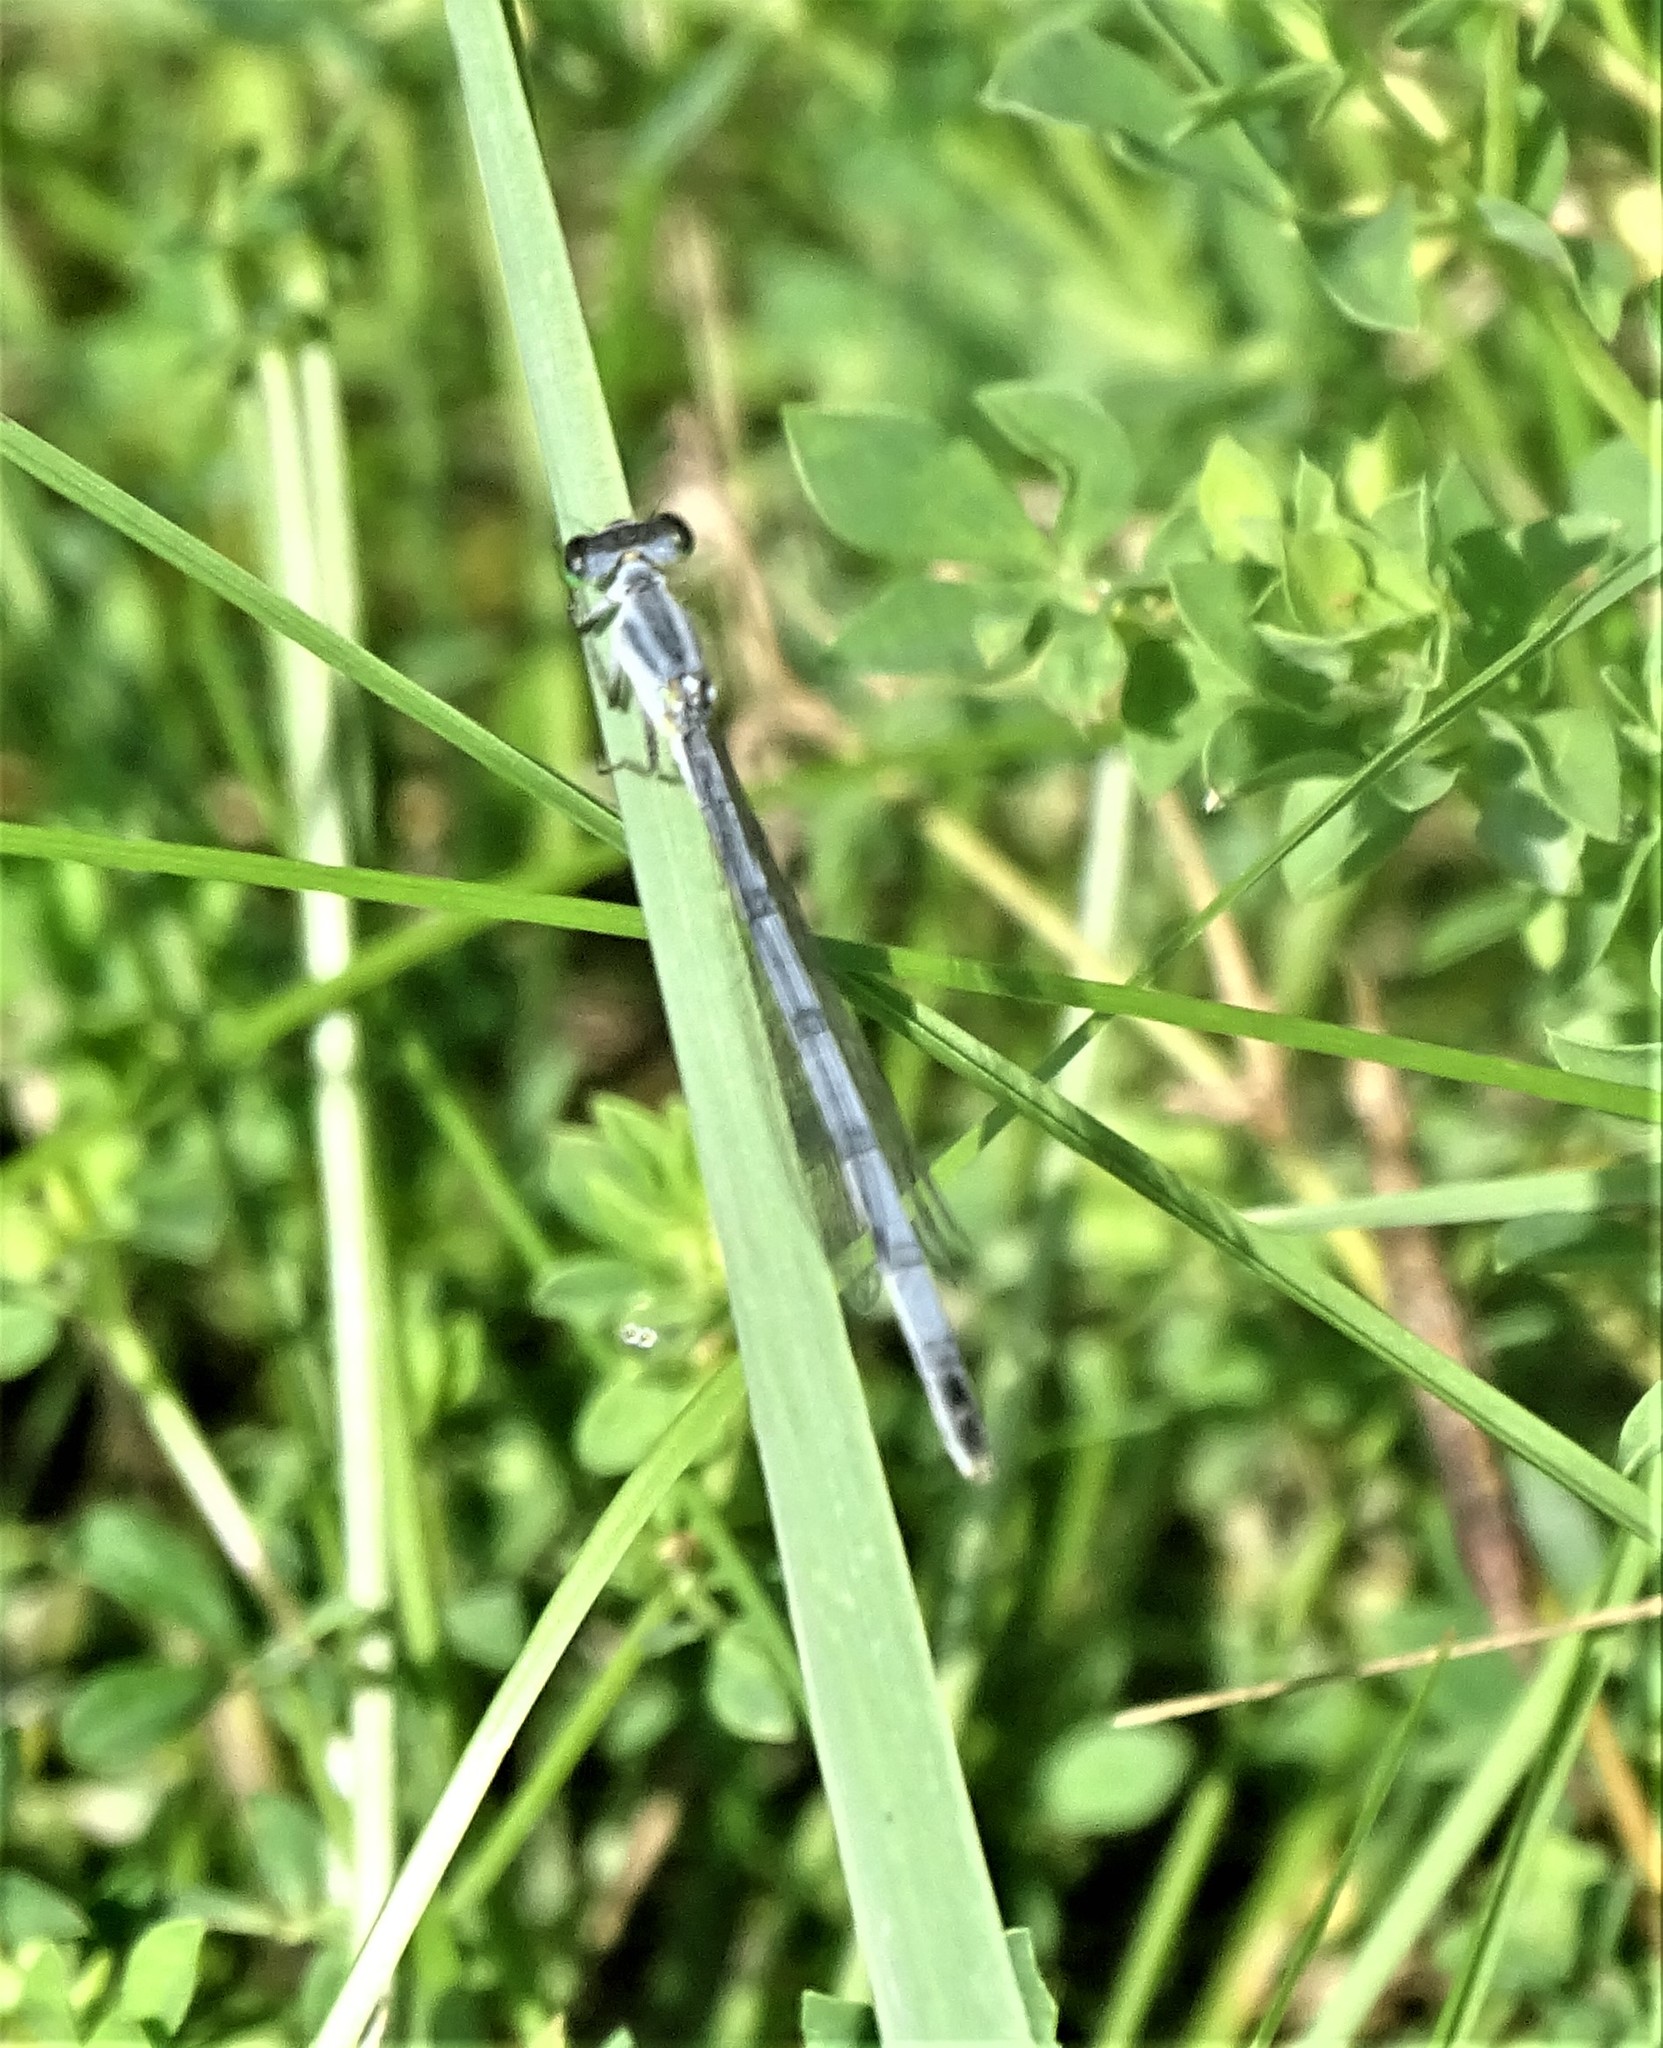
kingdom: Animalia
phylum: Arthropoda
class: Insecta
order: Odonata
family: Coenagrionidae
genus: Ischnura
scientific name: Ischnura verticalis
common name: Eastern forktail
